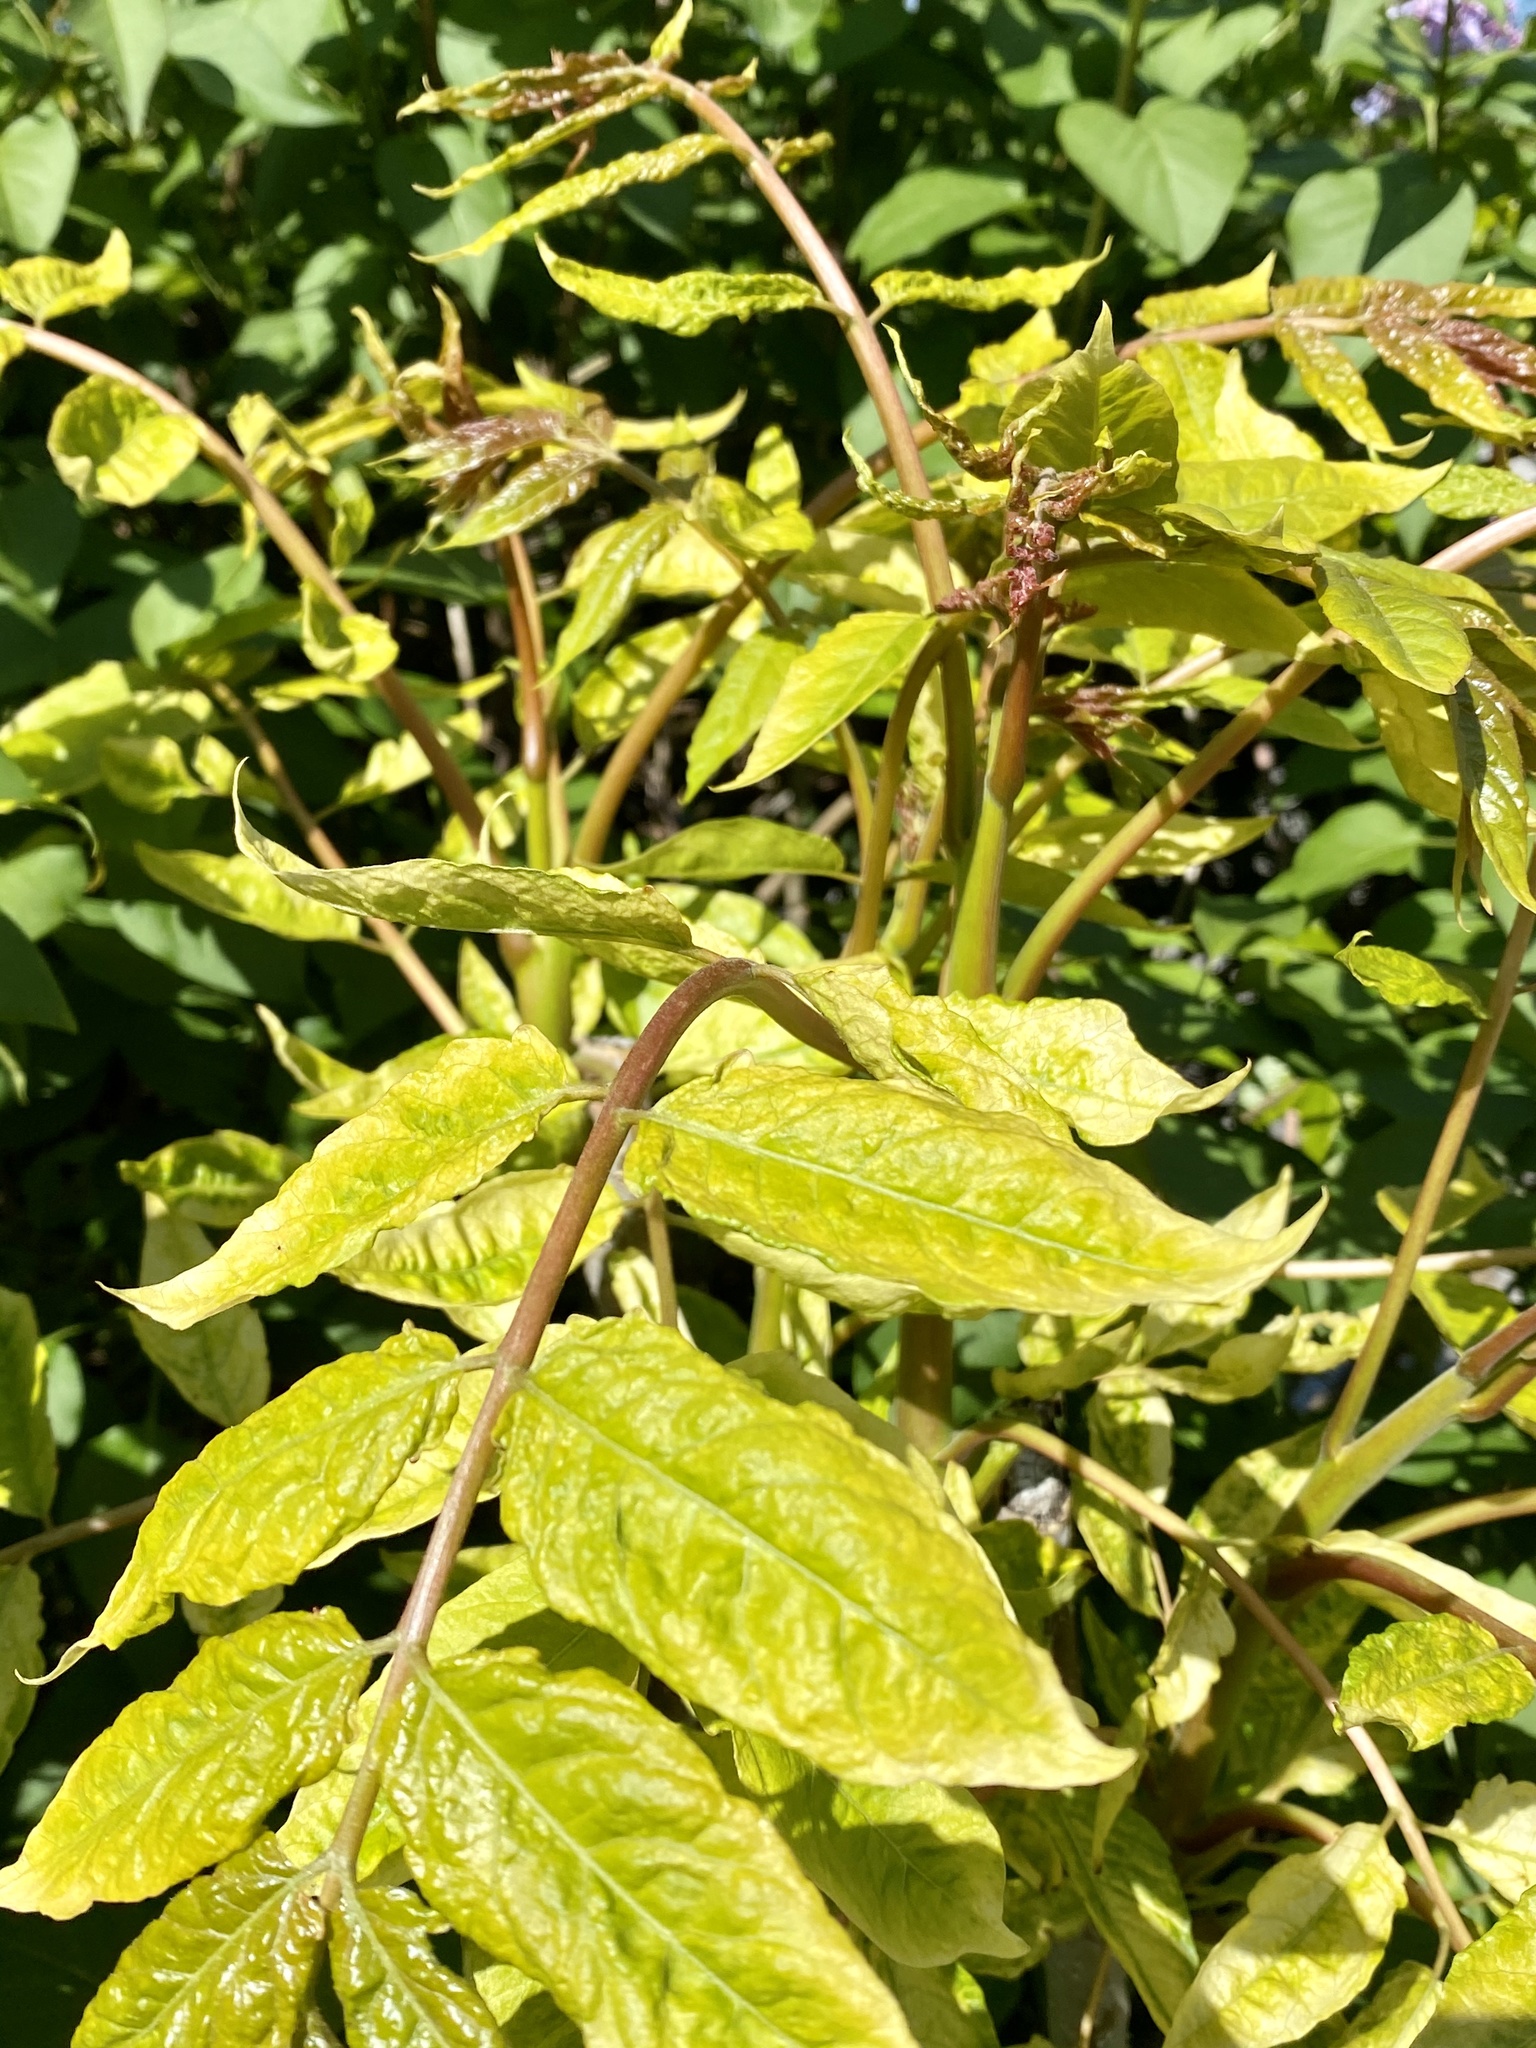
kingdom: Plantae
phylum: Tracheophyta
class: Magnoliopsida
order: Sapindales
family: Simaroubaceae
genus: Ailanthus
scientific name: Ailanthus altissima
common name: Tree-of-heaven
